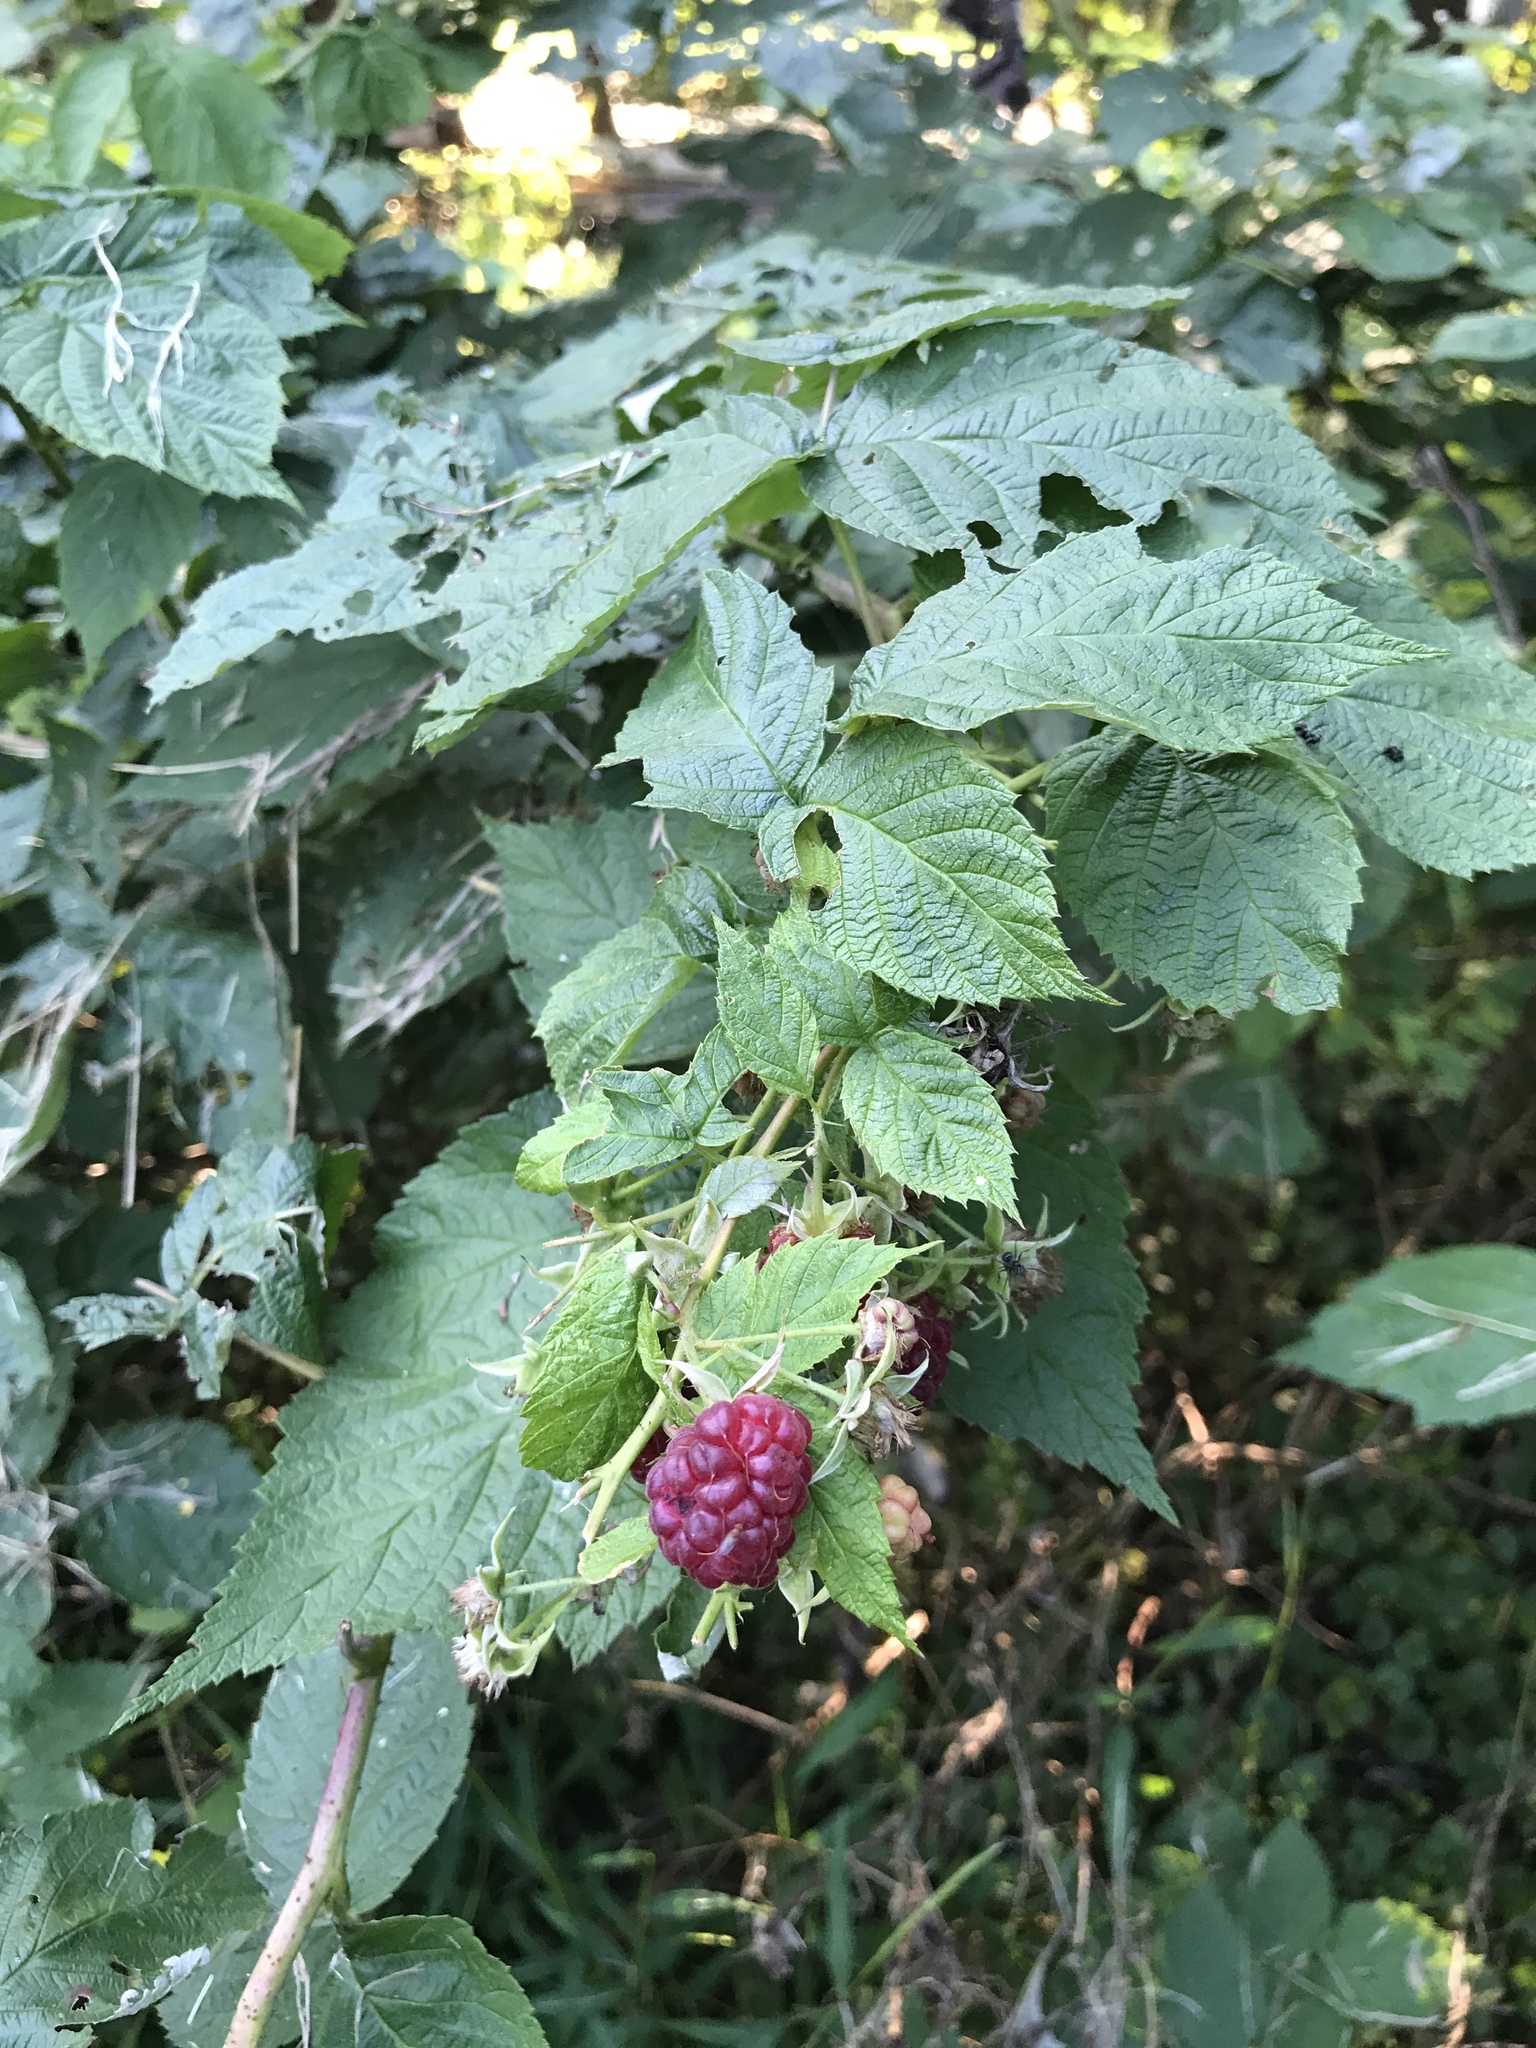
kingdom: Plantae
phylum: Tracheophyta
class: Magnoliopsida
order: Rosales
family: Rosaceae
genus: Rubus
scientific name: Rubus idaeus
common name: Raspberry
